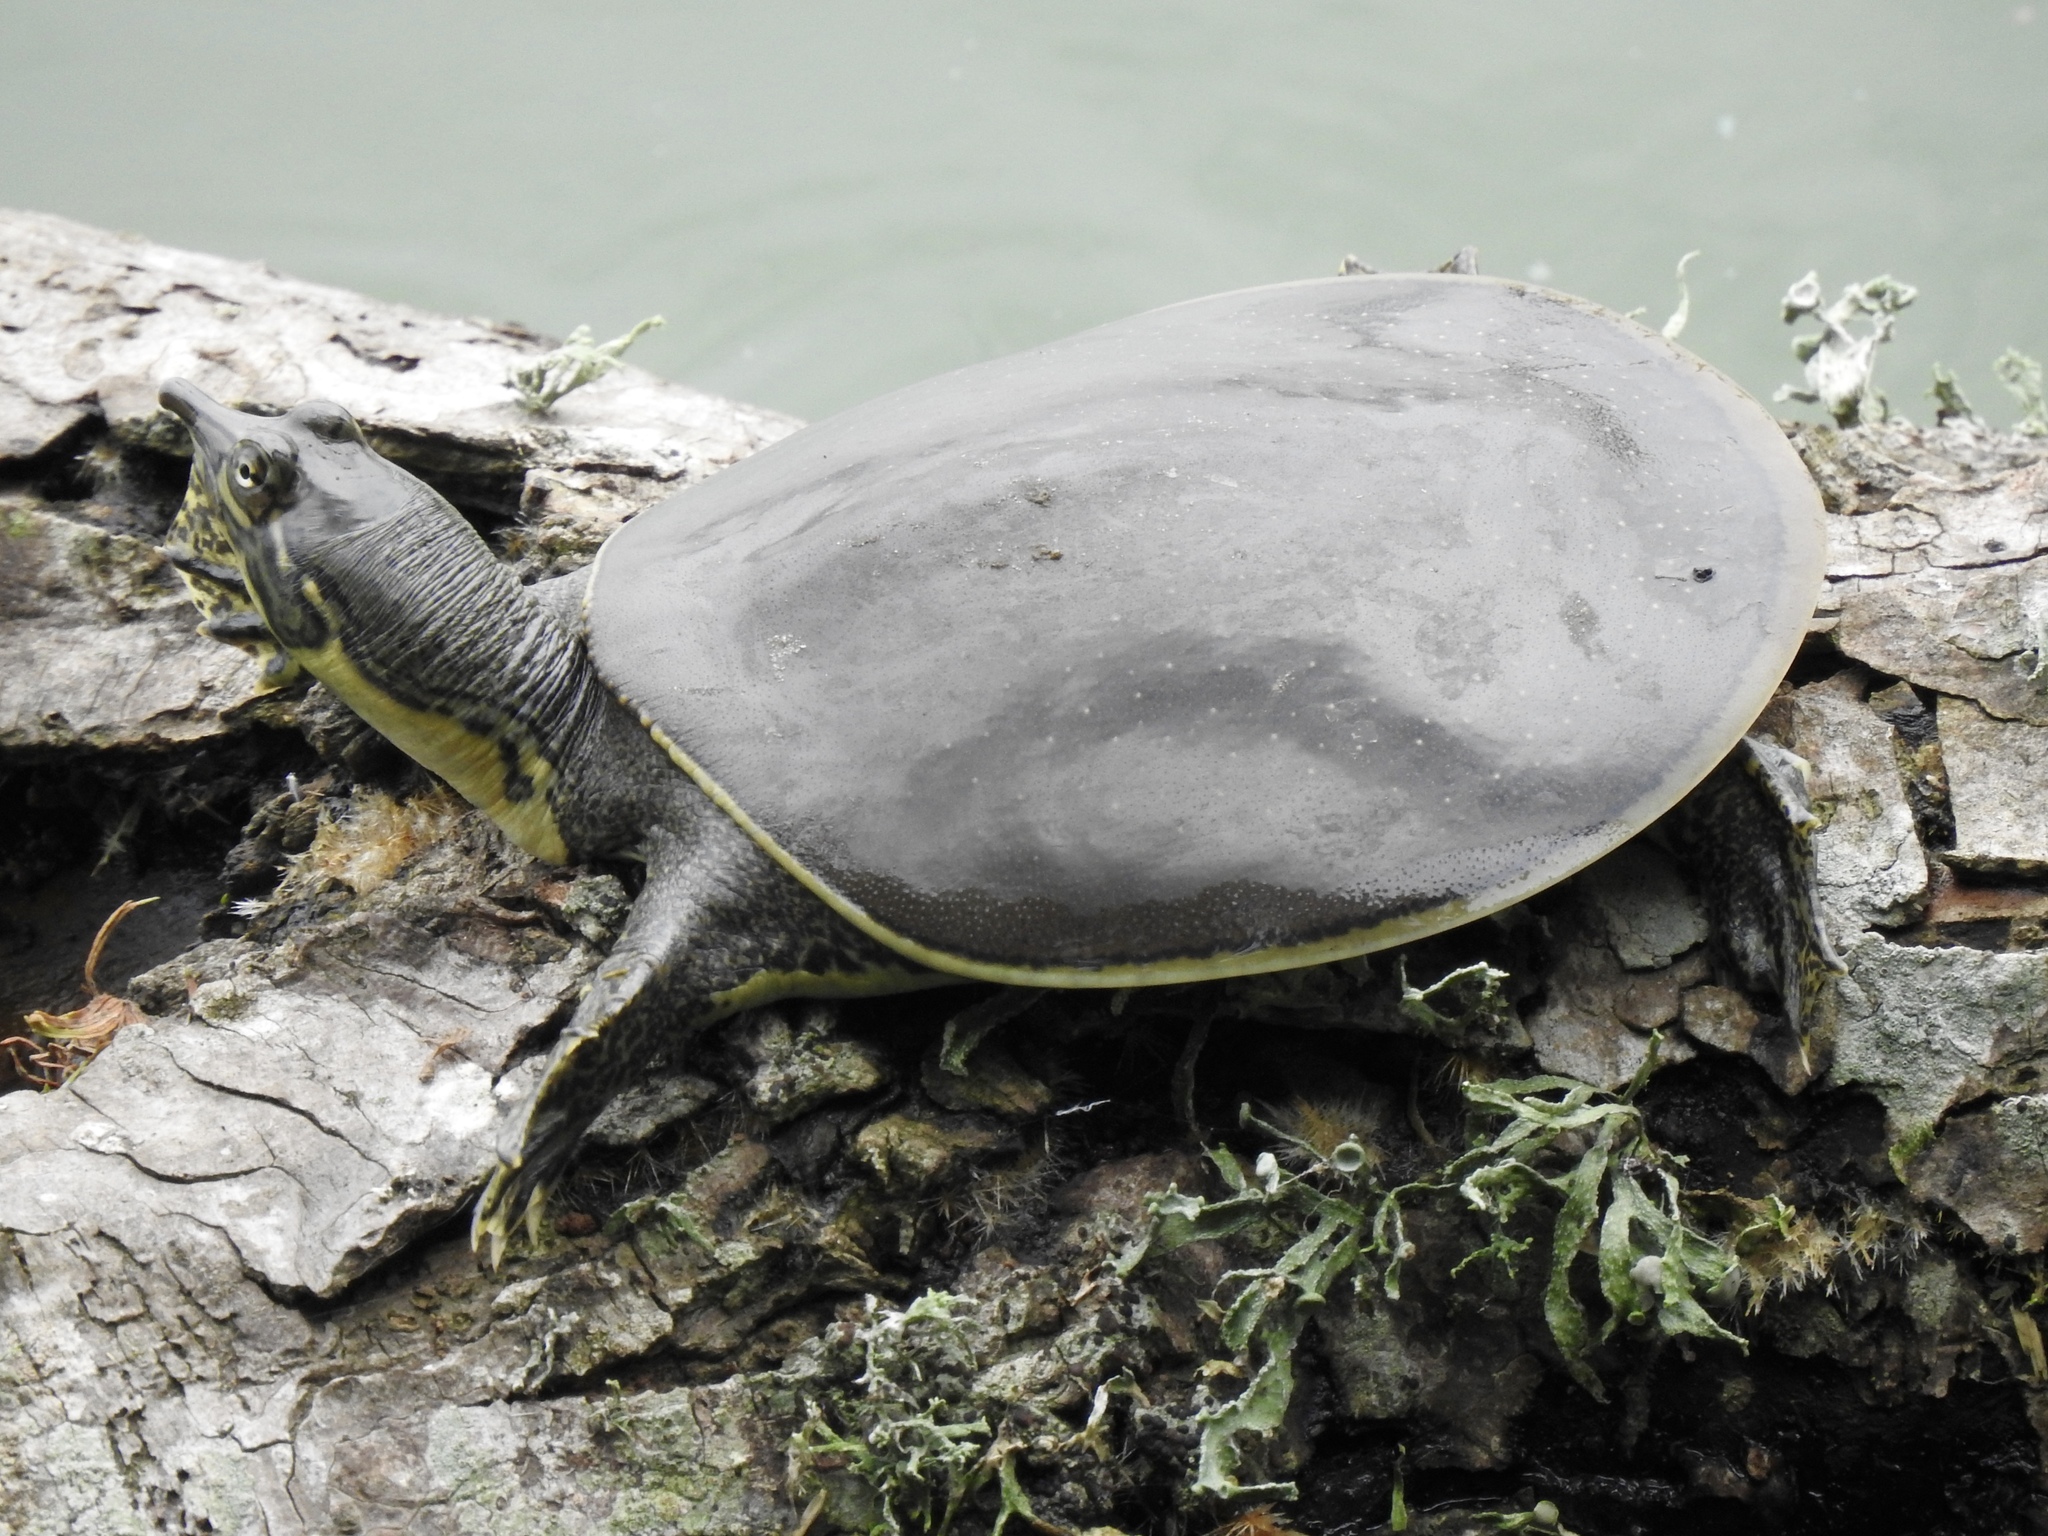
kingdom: Animalia
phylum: Chordata
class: Testudines
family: Trionychidae
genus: Apalone
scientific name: Apalone spinifera
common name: Spiny softshell turtle
